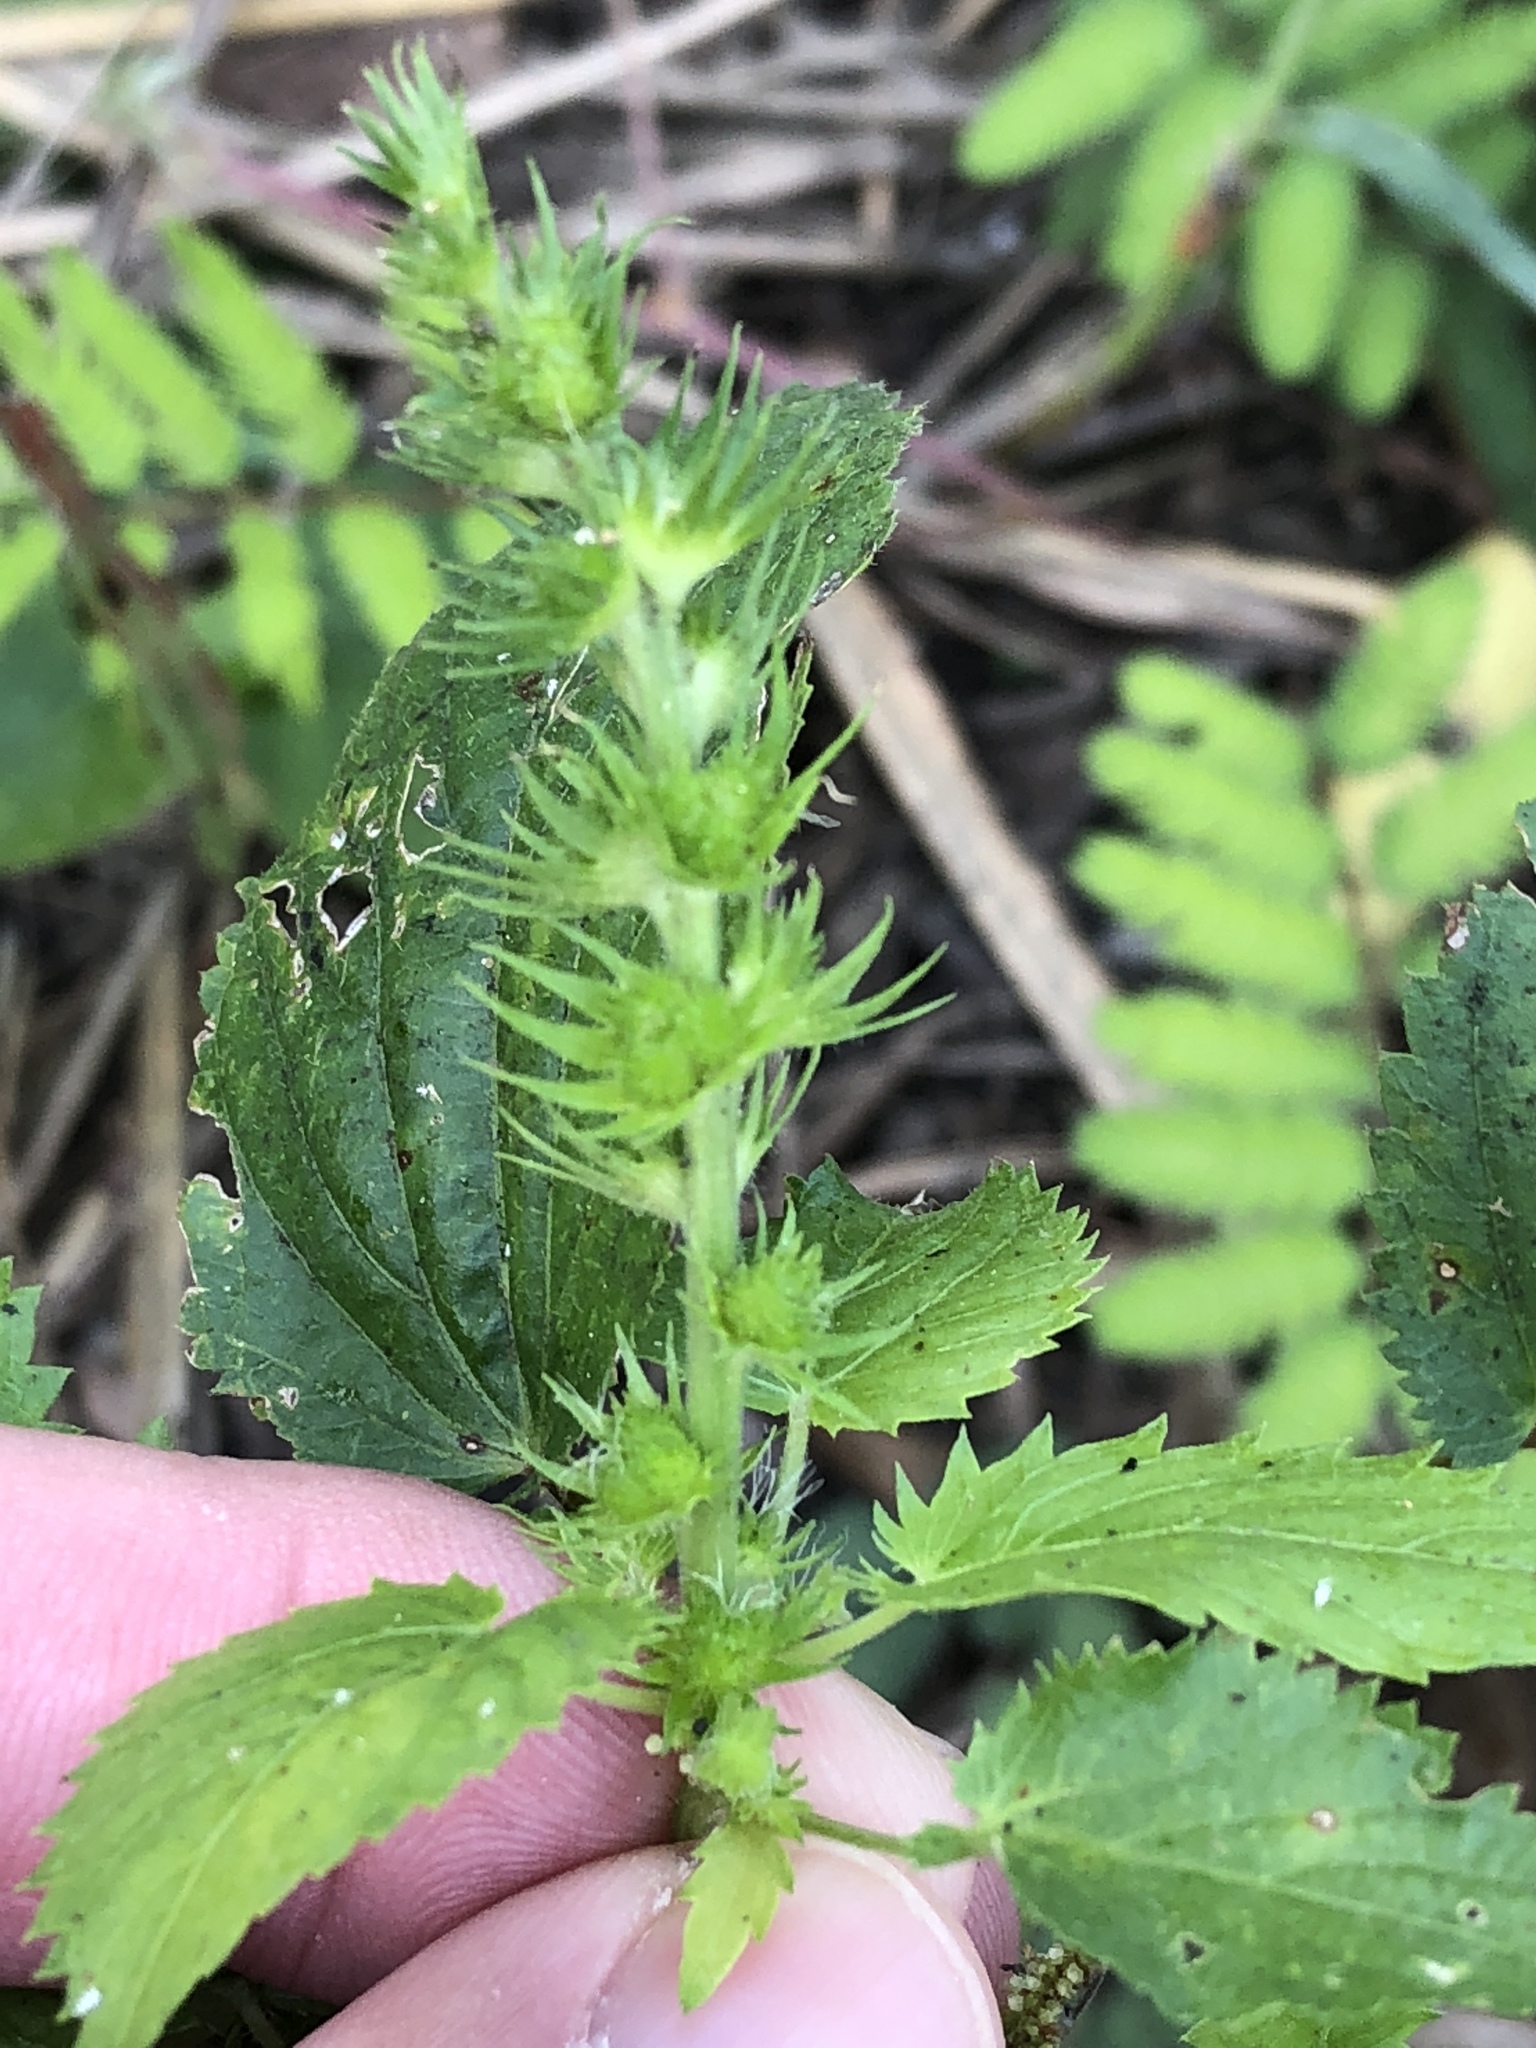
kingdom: Plantae
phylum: Tracheophyta
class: Magnoliopsida
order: Malpighiales
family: Euphorbiaceae
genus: Acalypha
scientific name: Acalypha ostryifolia
